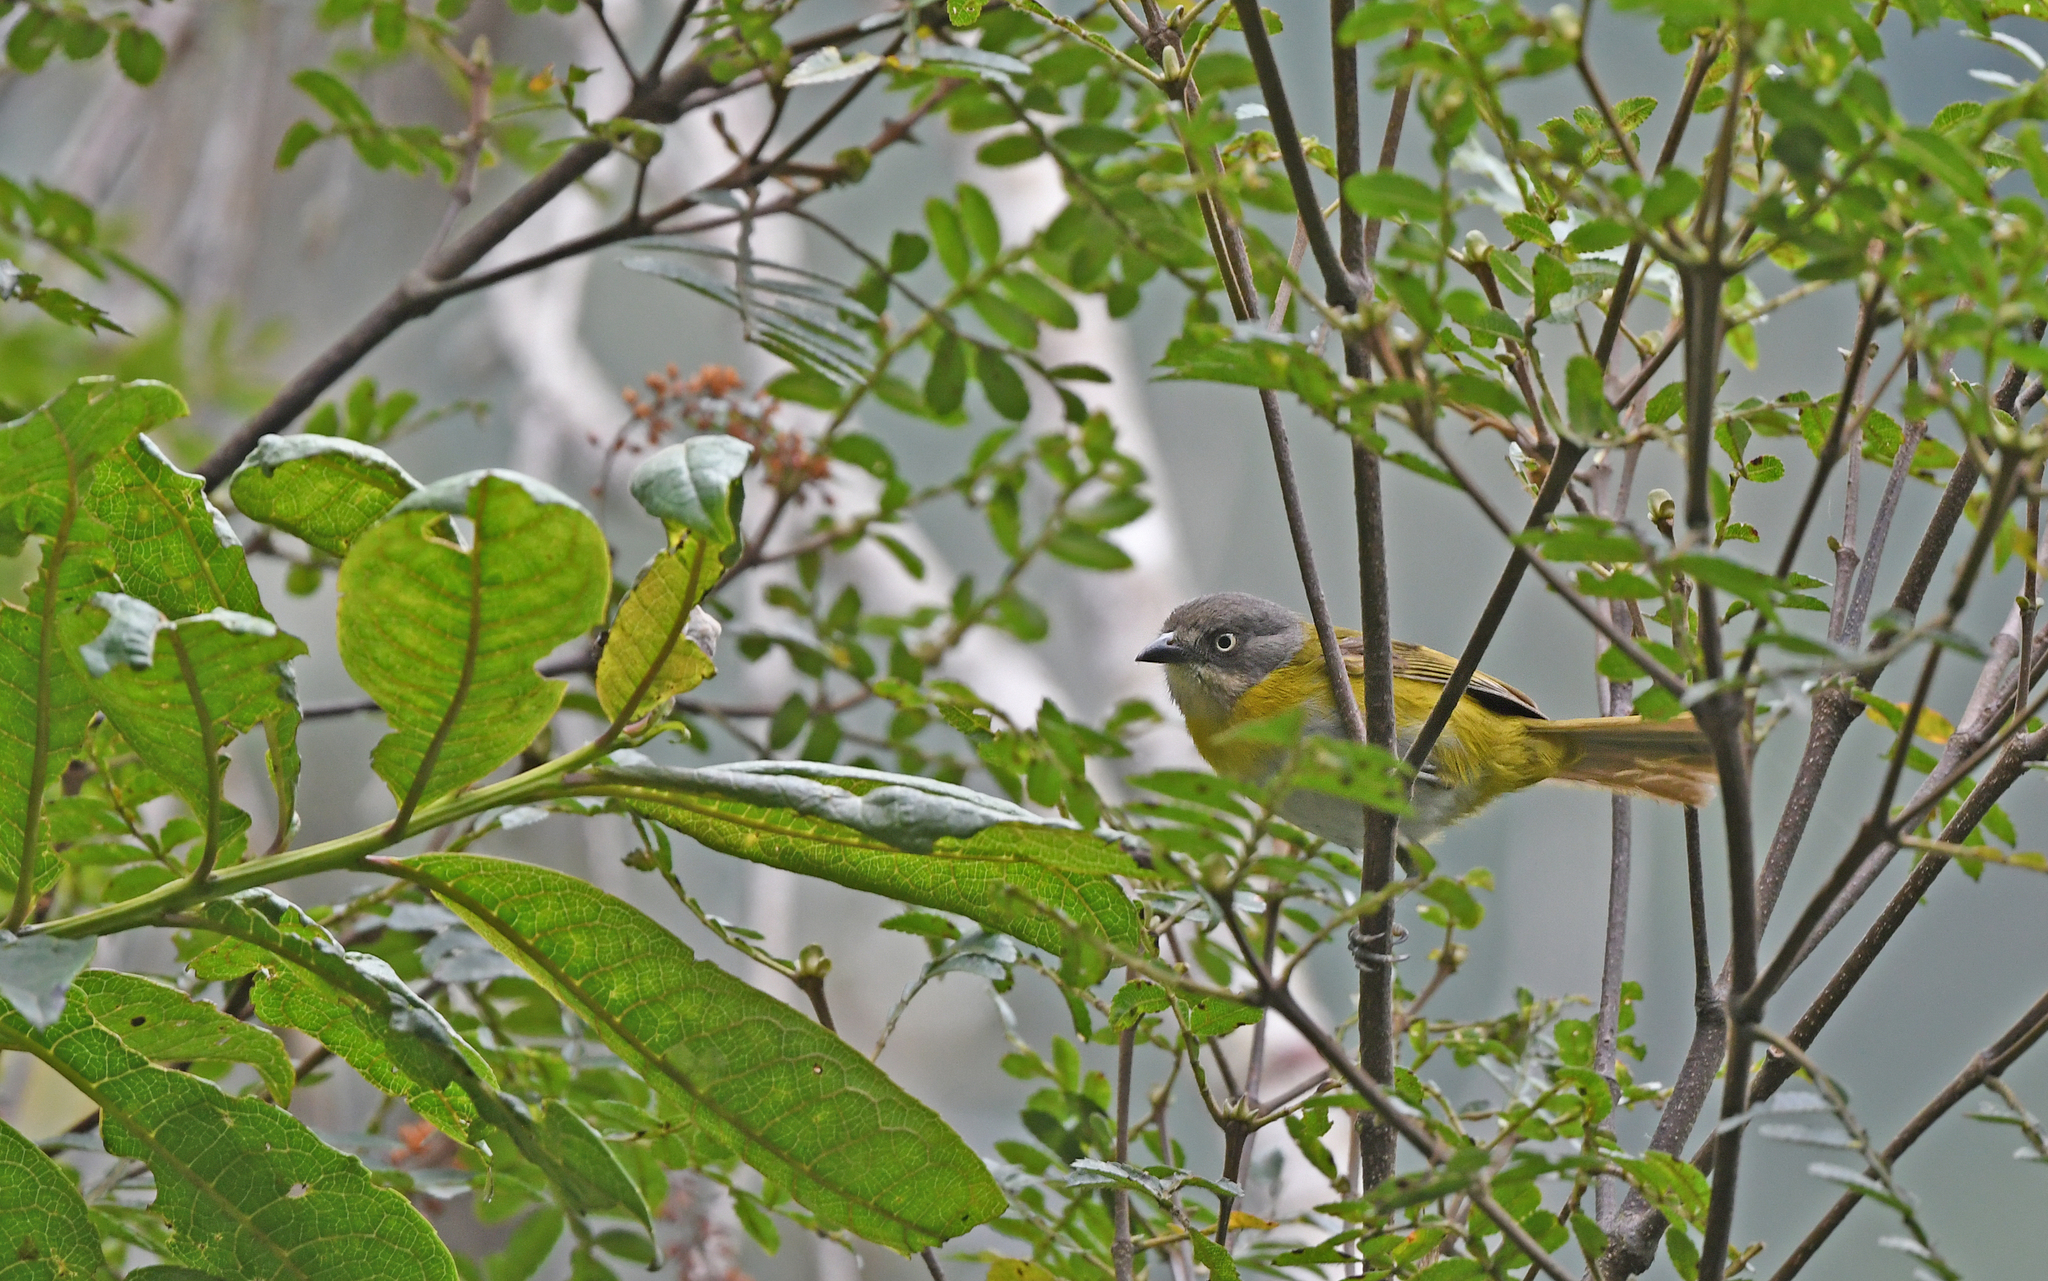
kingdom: Animalia
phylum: Chordata
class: Aves
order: Passeriformes
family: Passerellidae
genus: Chlorospingus
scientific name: Chlorospingus flavopectus
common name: Common chlorospingus
